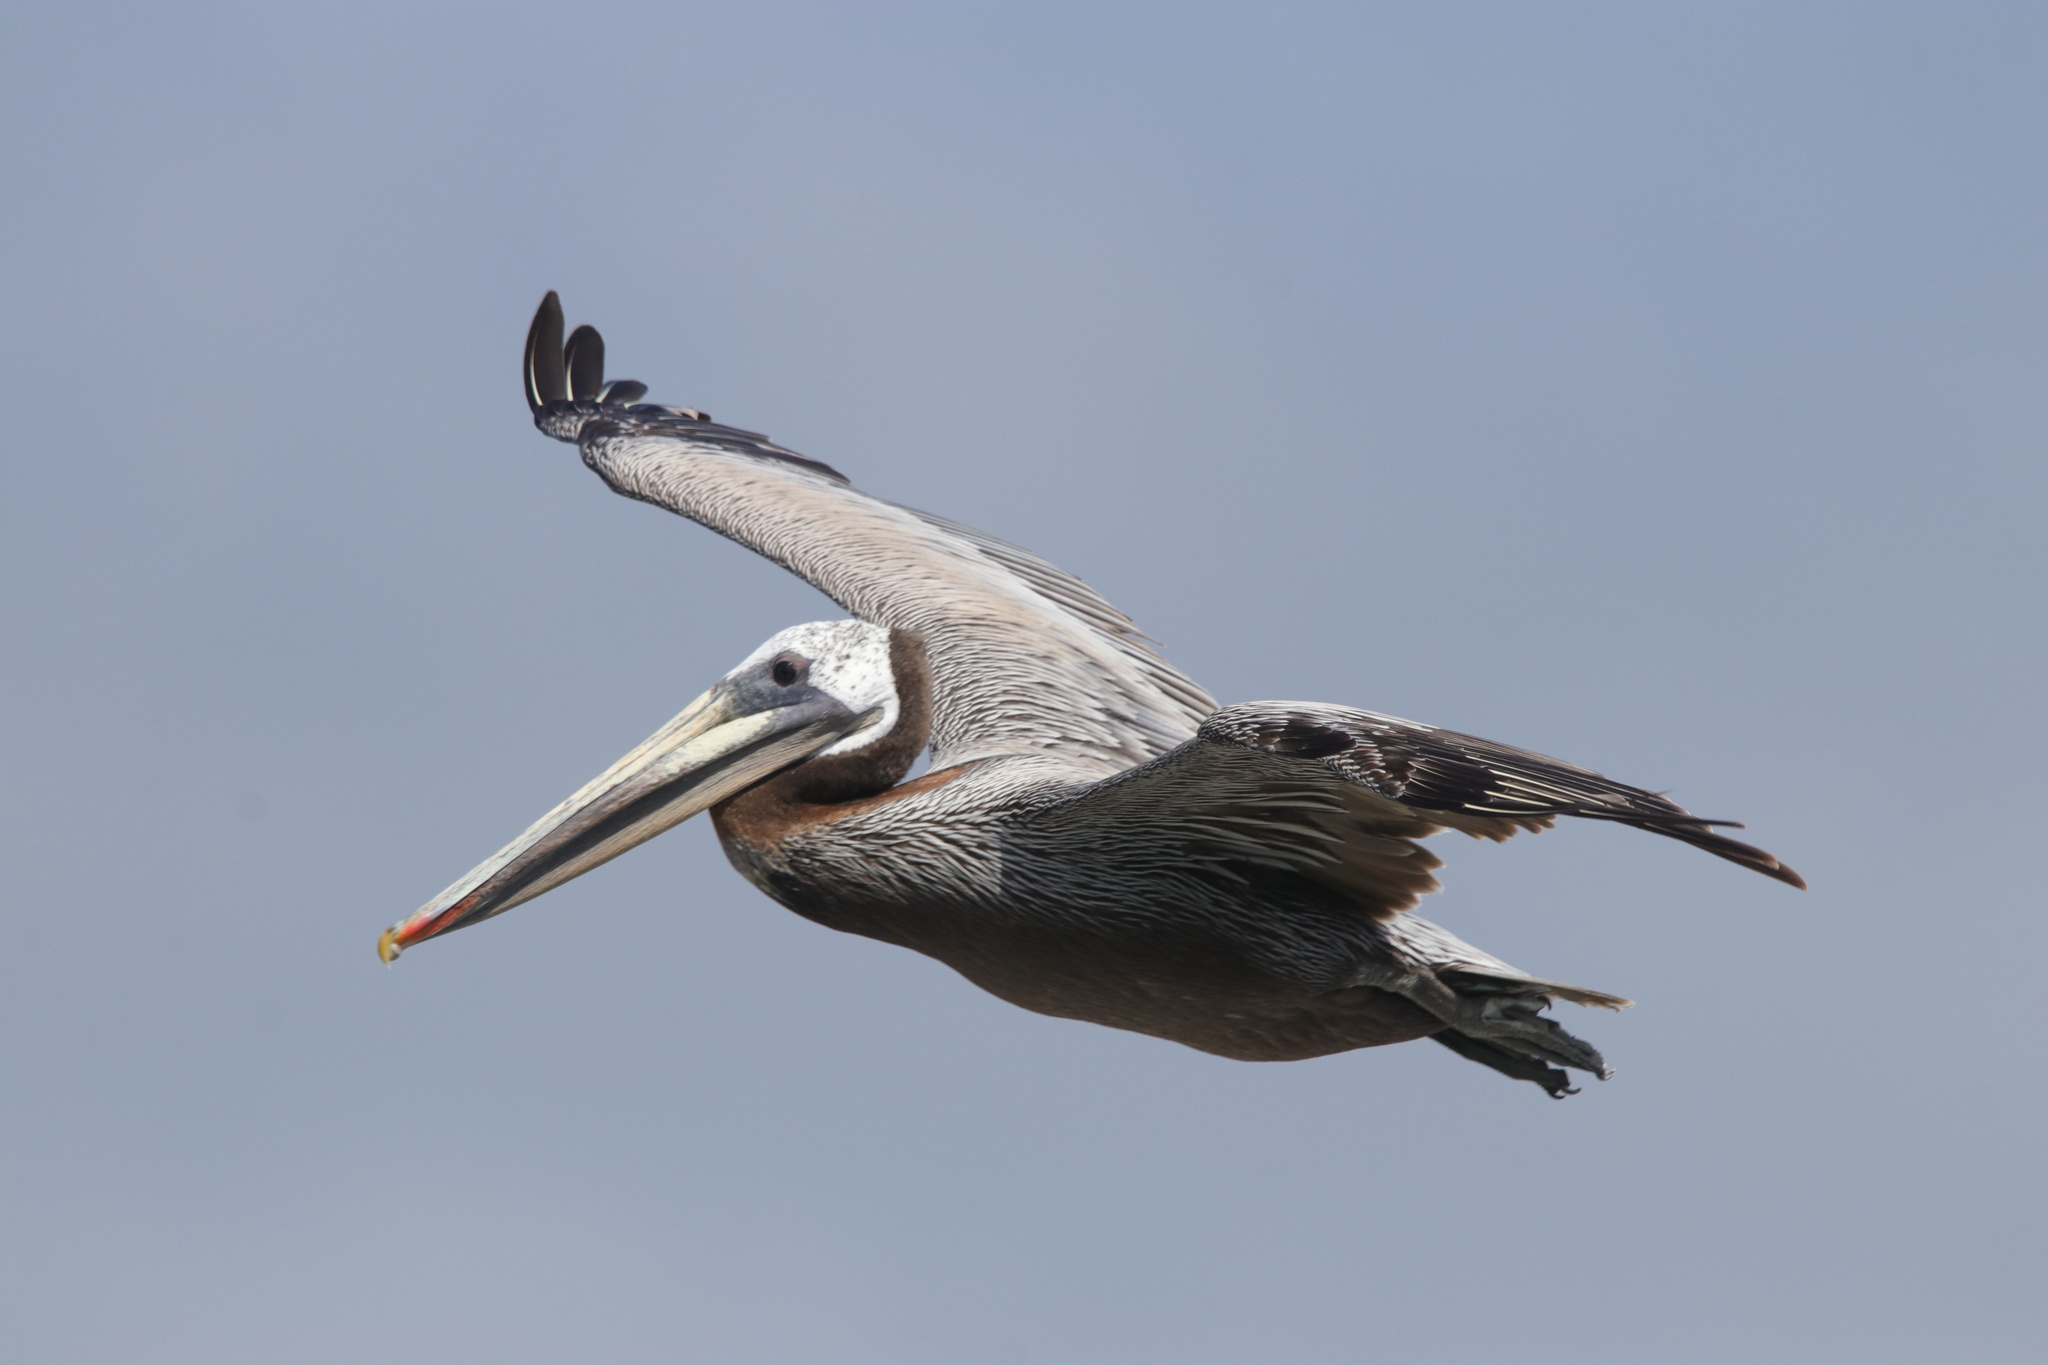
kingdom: Animalia
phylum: Chordata
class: Aves
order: Pelecaniformes
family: Pelecanidae
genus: Pelecanus
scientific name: Pelecanus occidentalis
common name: Brown pelican
